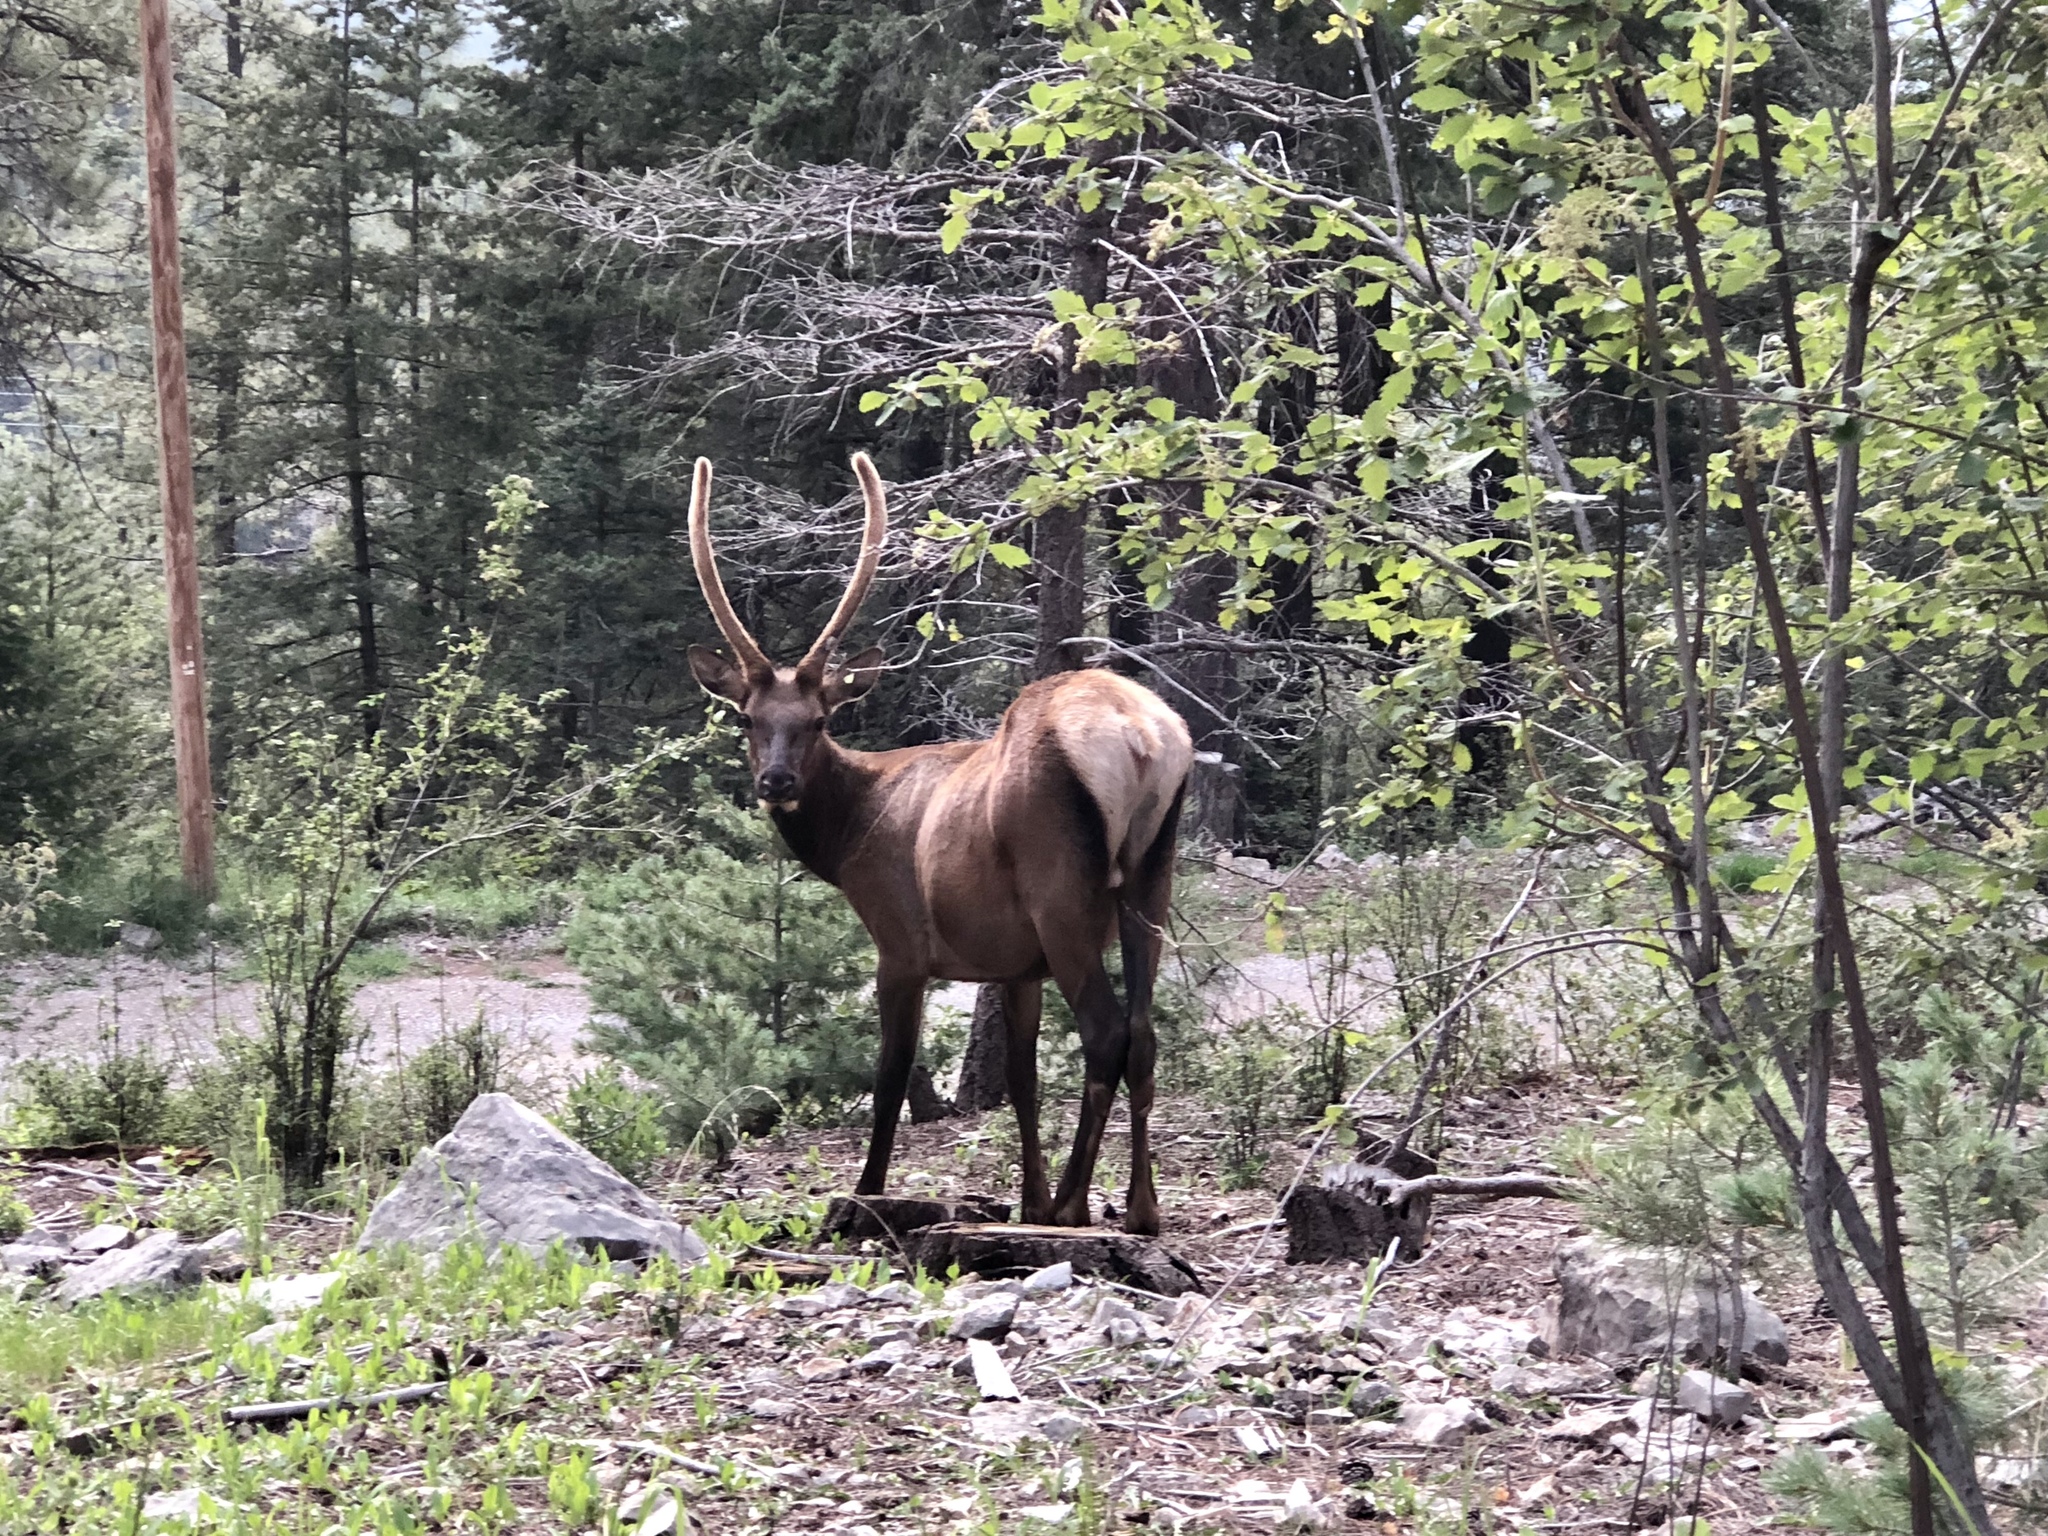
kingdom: Animalia
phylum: Chordata
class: Mammalia
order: Artiodactyla
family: Cervidae
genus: Cervus
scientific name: Cervus elaphus
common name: Red deer
